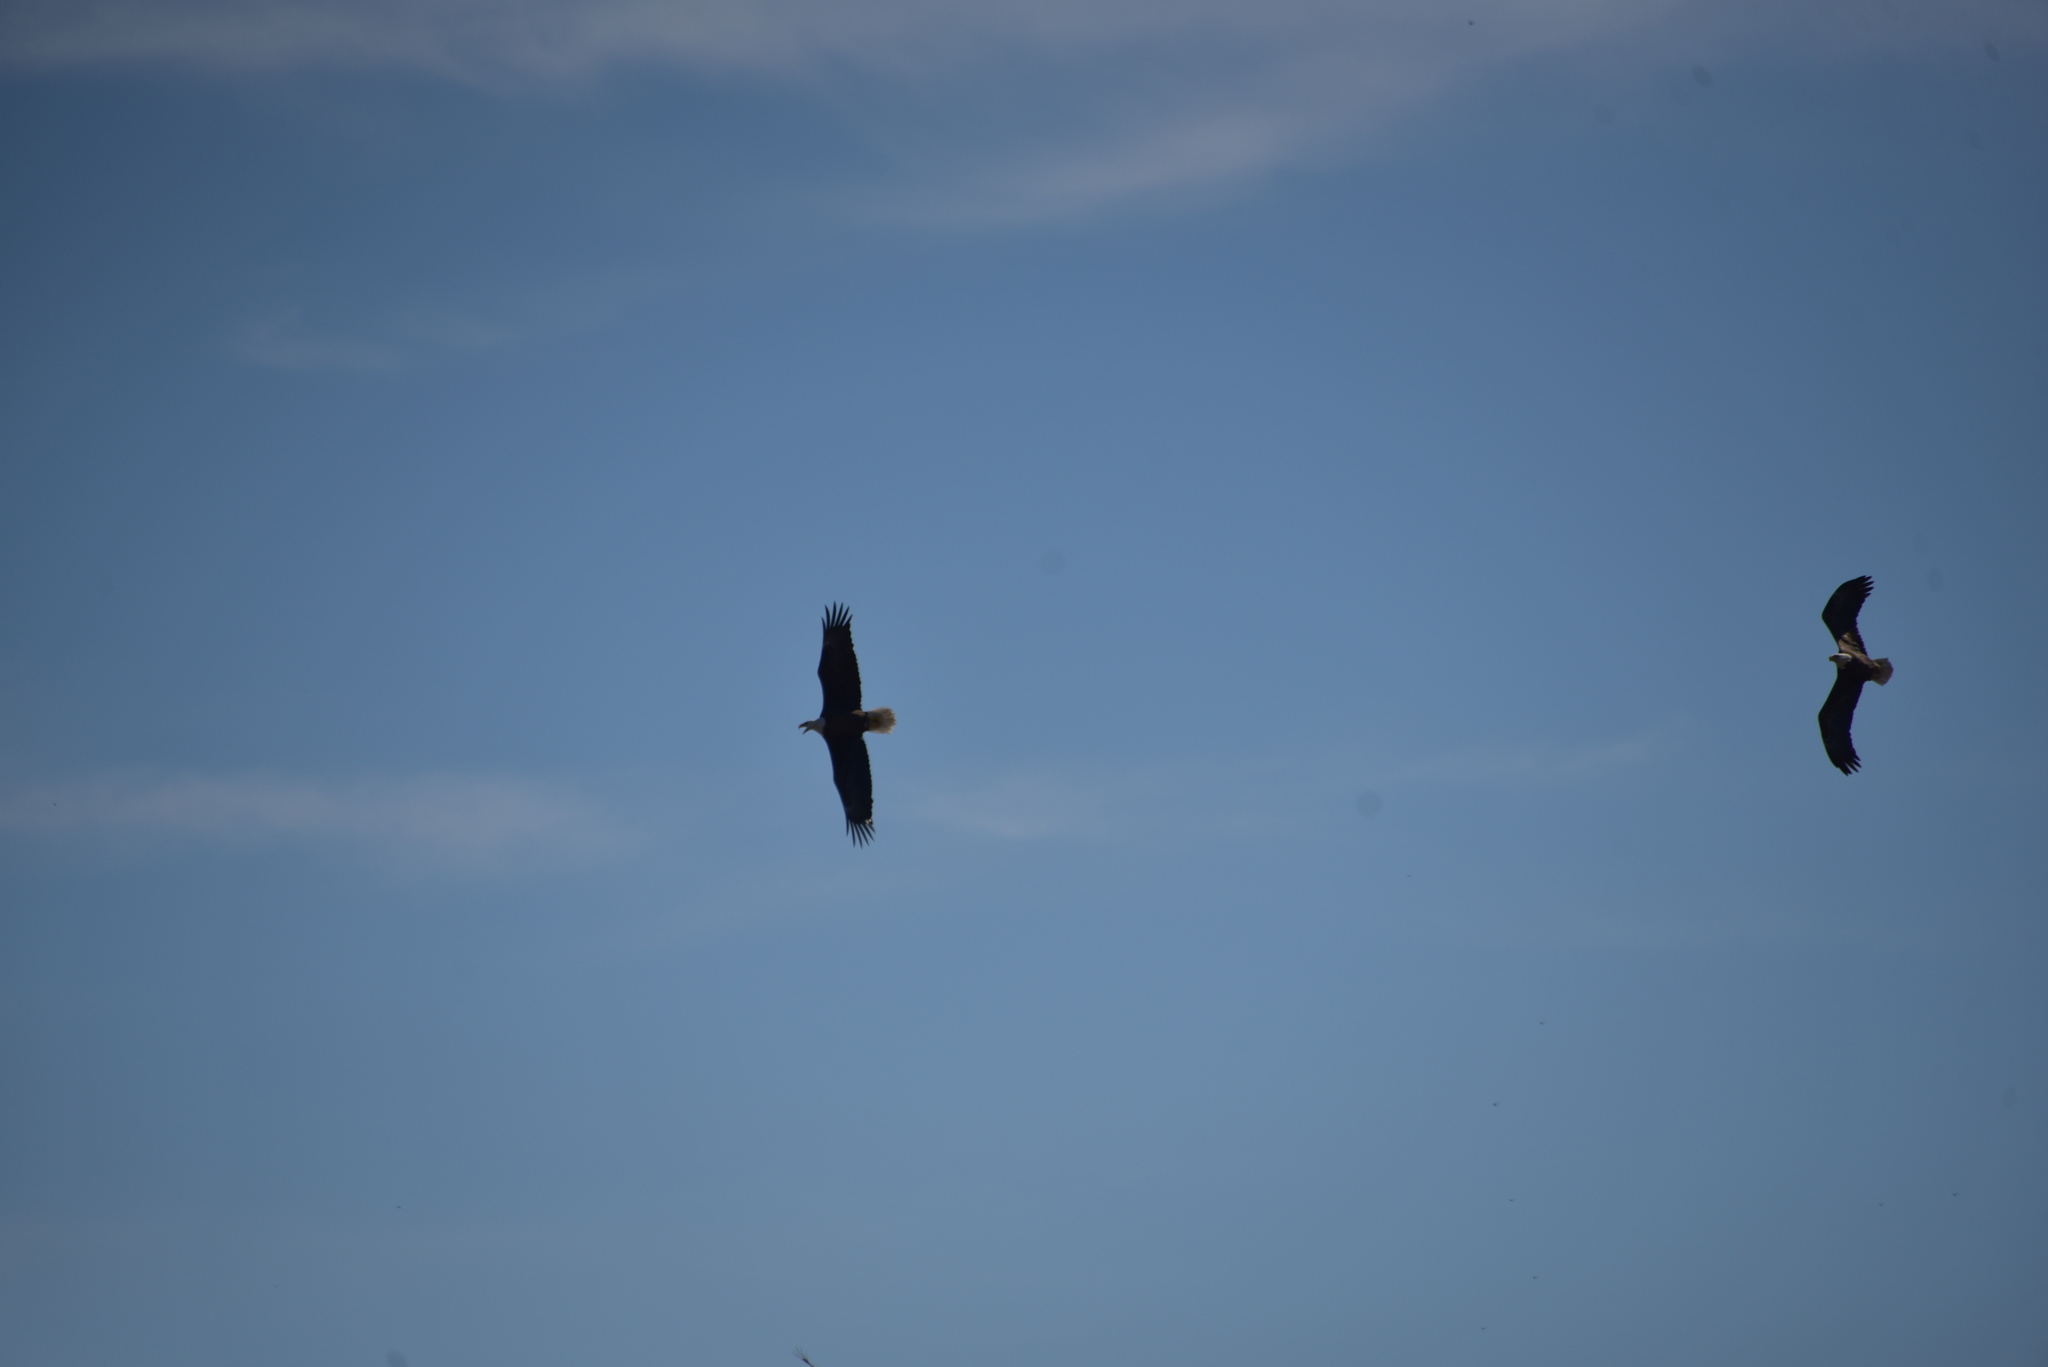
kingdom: Animalia
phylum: Chordata
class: Aves
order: Accipitriformes
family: Accipitridae
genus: Haliaeetus
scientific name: Haliaeetus leucocephalus
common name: Bald eagle
